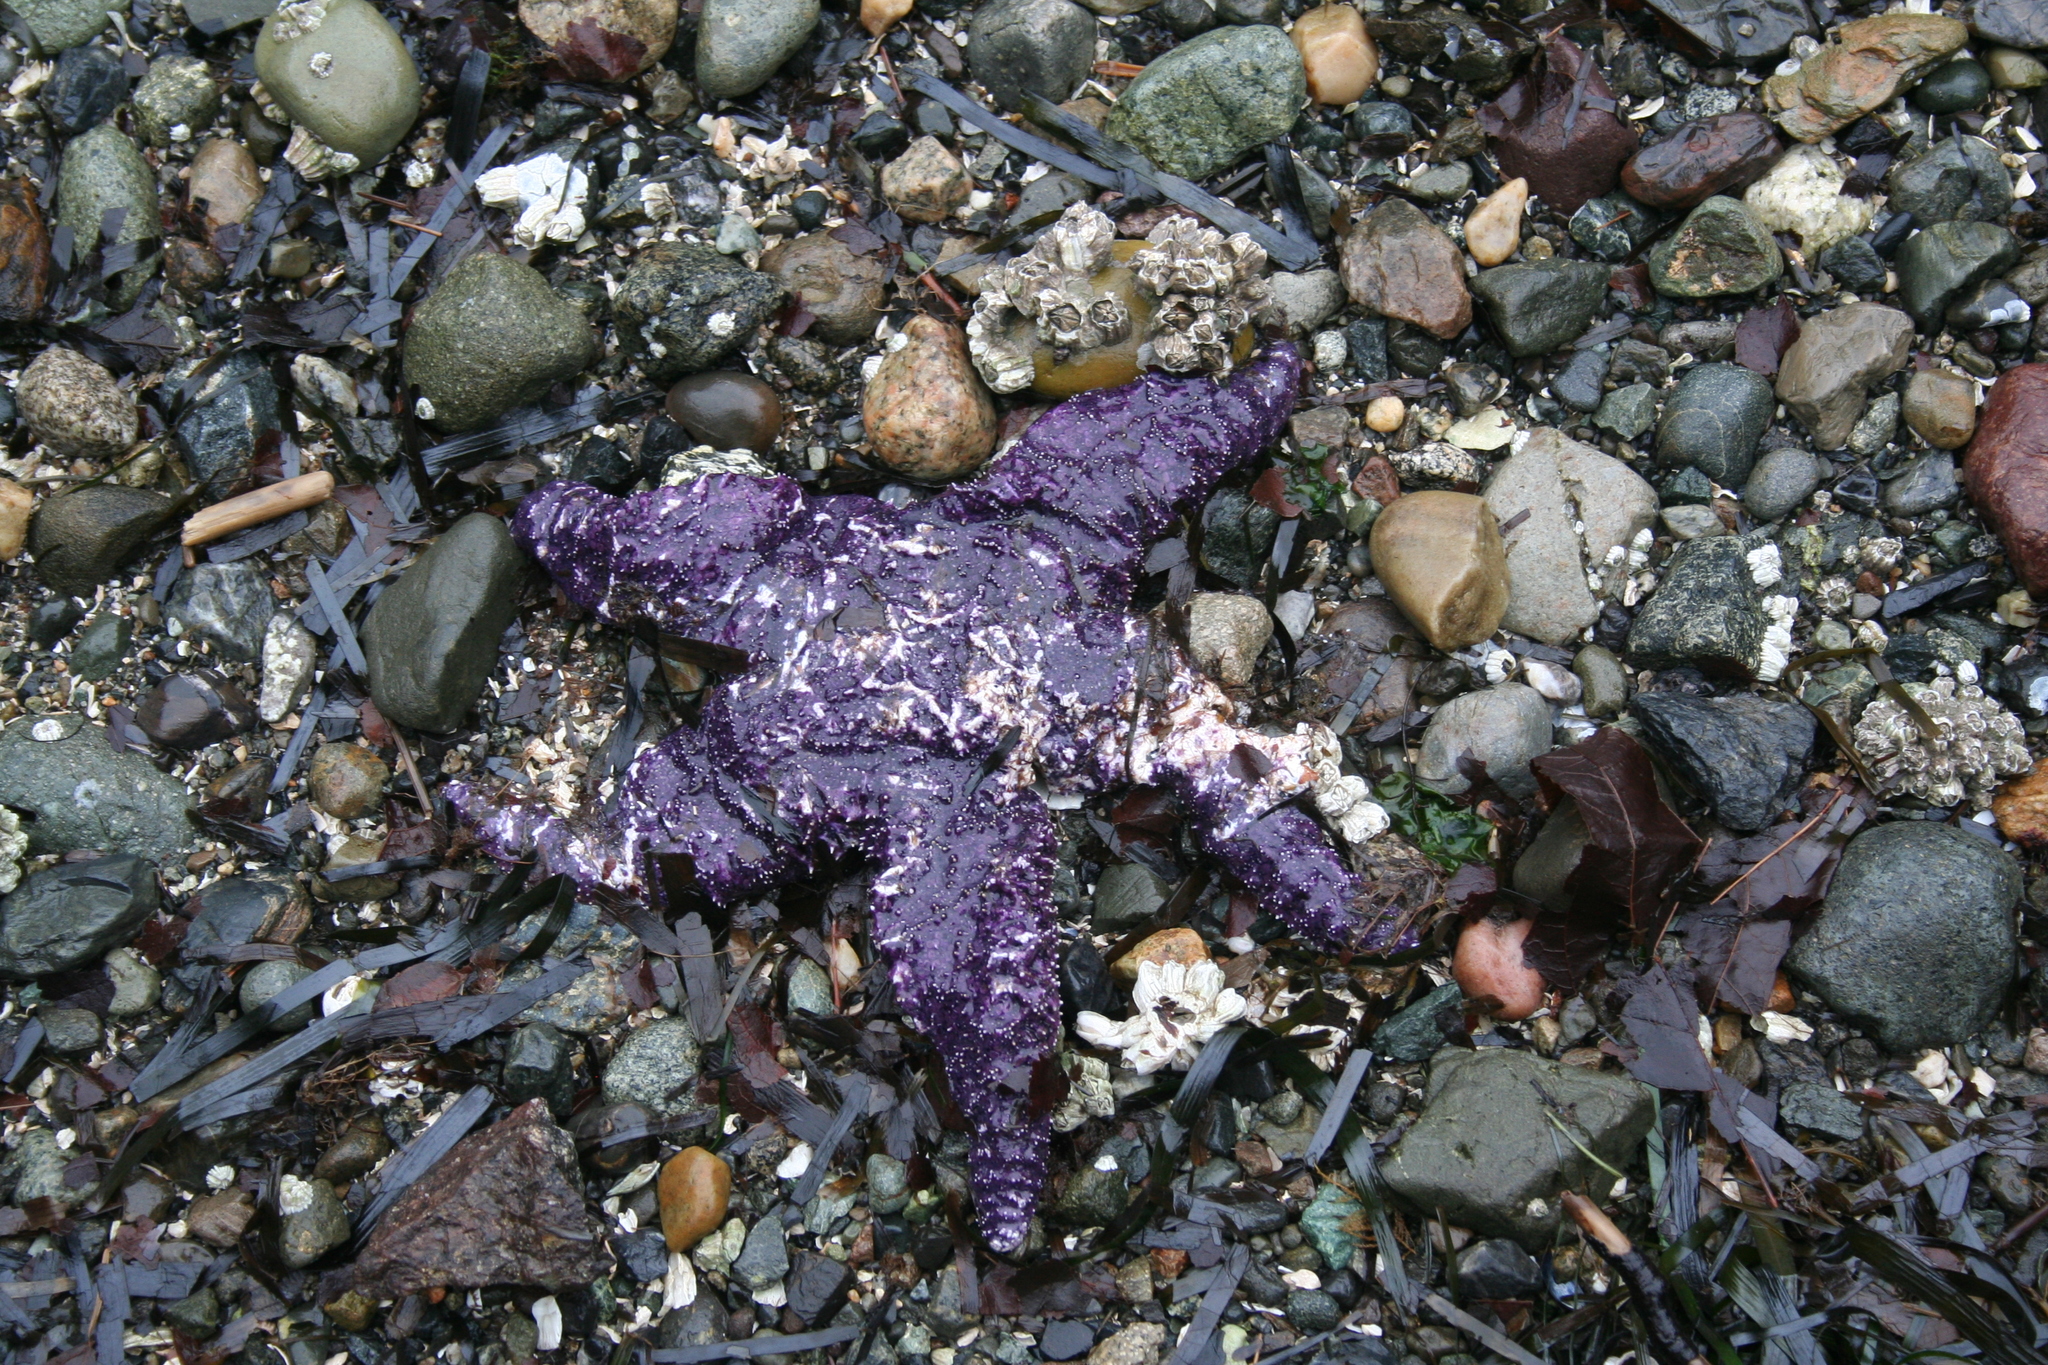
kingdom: Animalia
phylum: Echinodermata
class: Asteroidea
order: Forcipulatida
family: Asteriidae
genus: Pisaster
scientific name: Pisaster ochraceus
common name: Ochre stars
